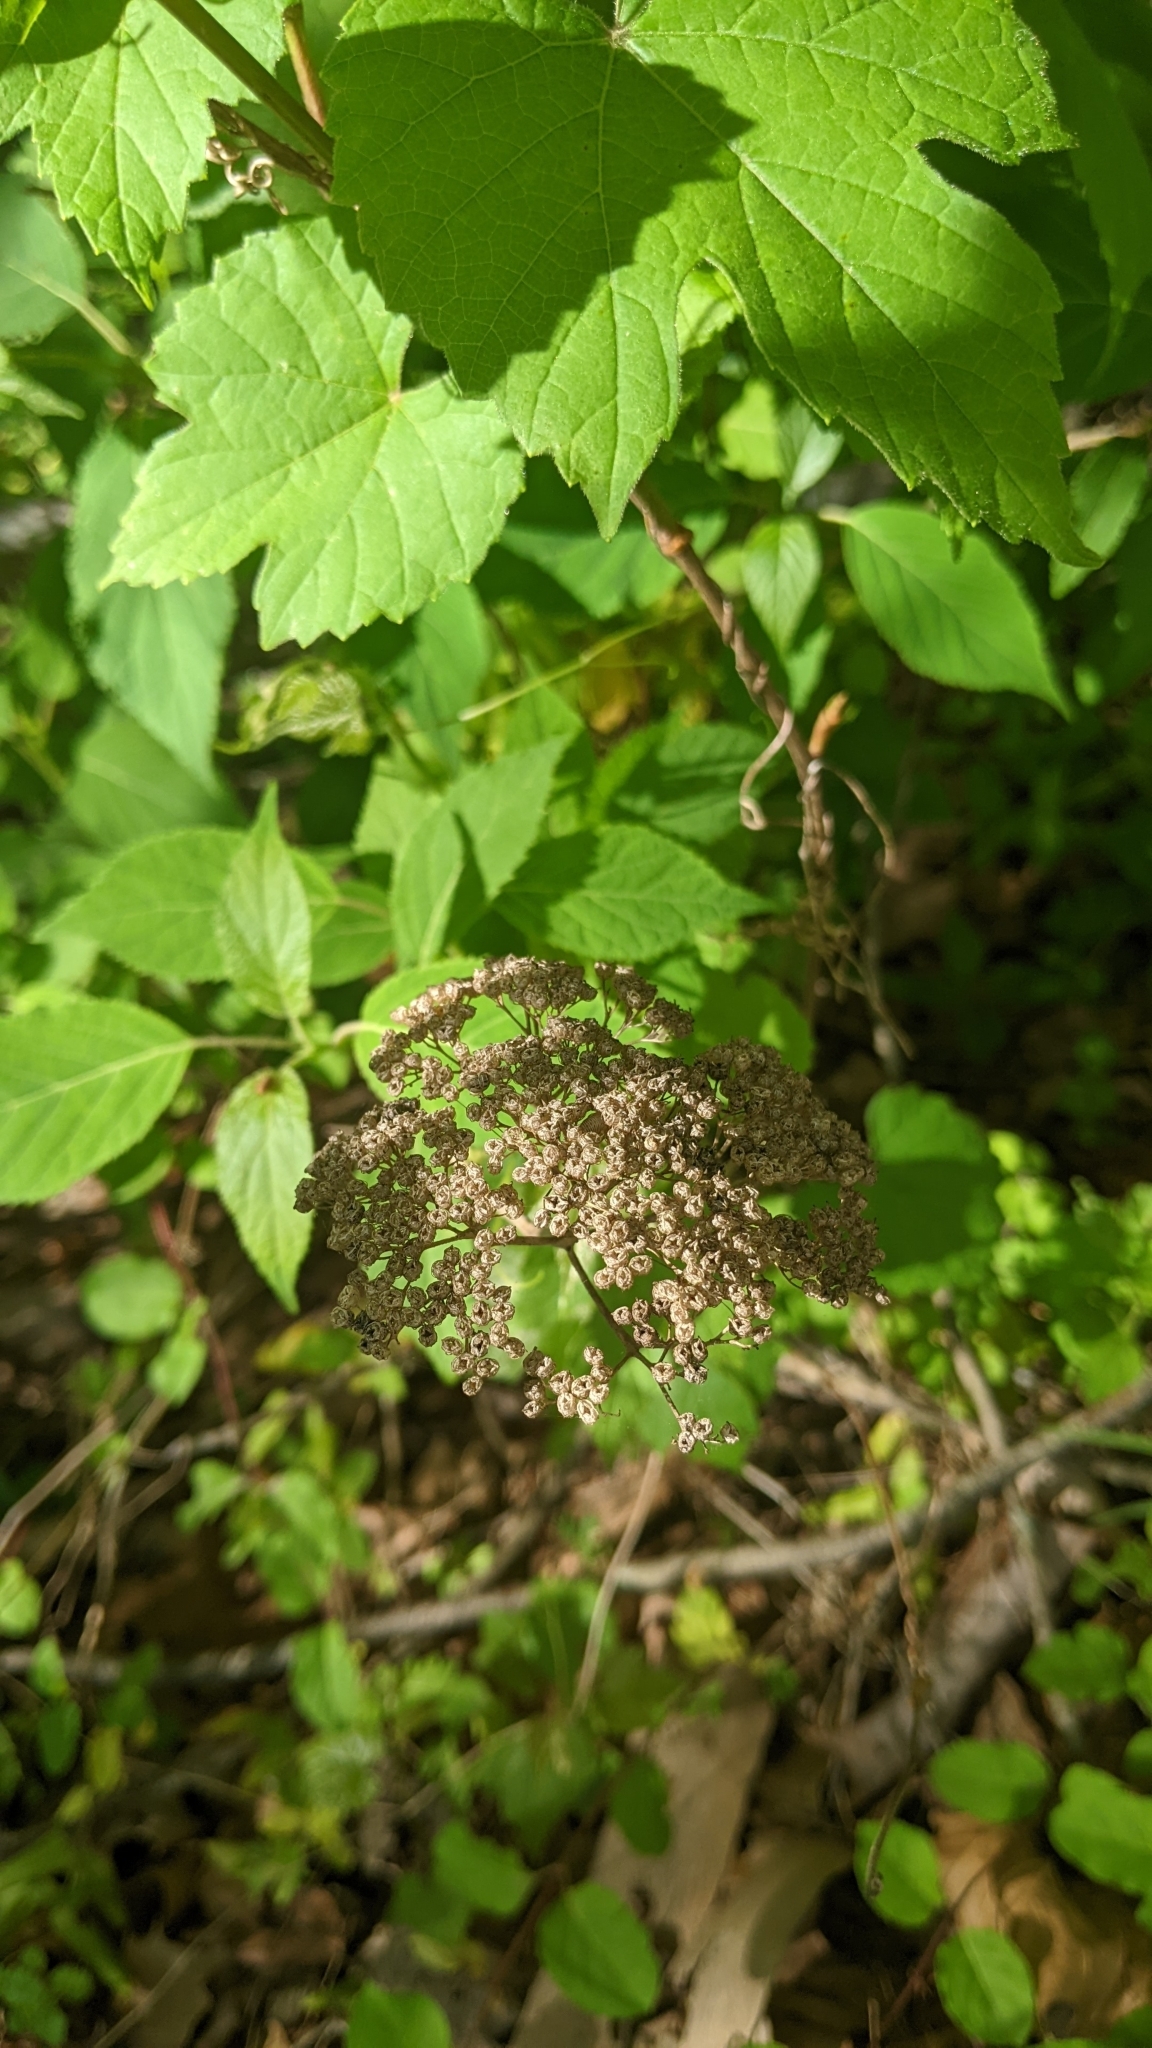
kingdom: Plantae
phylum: Tracheophyta
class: Magnoliopsida
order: Cornales
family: Hydrangeaceae
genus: Hydrangea
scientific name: Hydrangea arborescens
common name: Sevenbark
